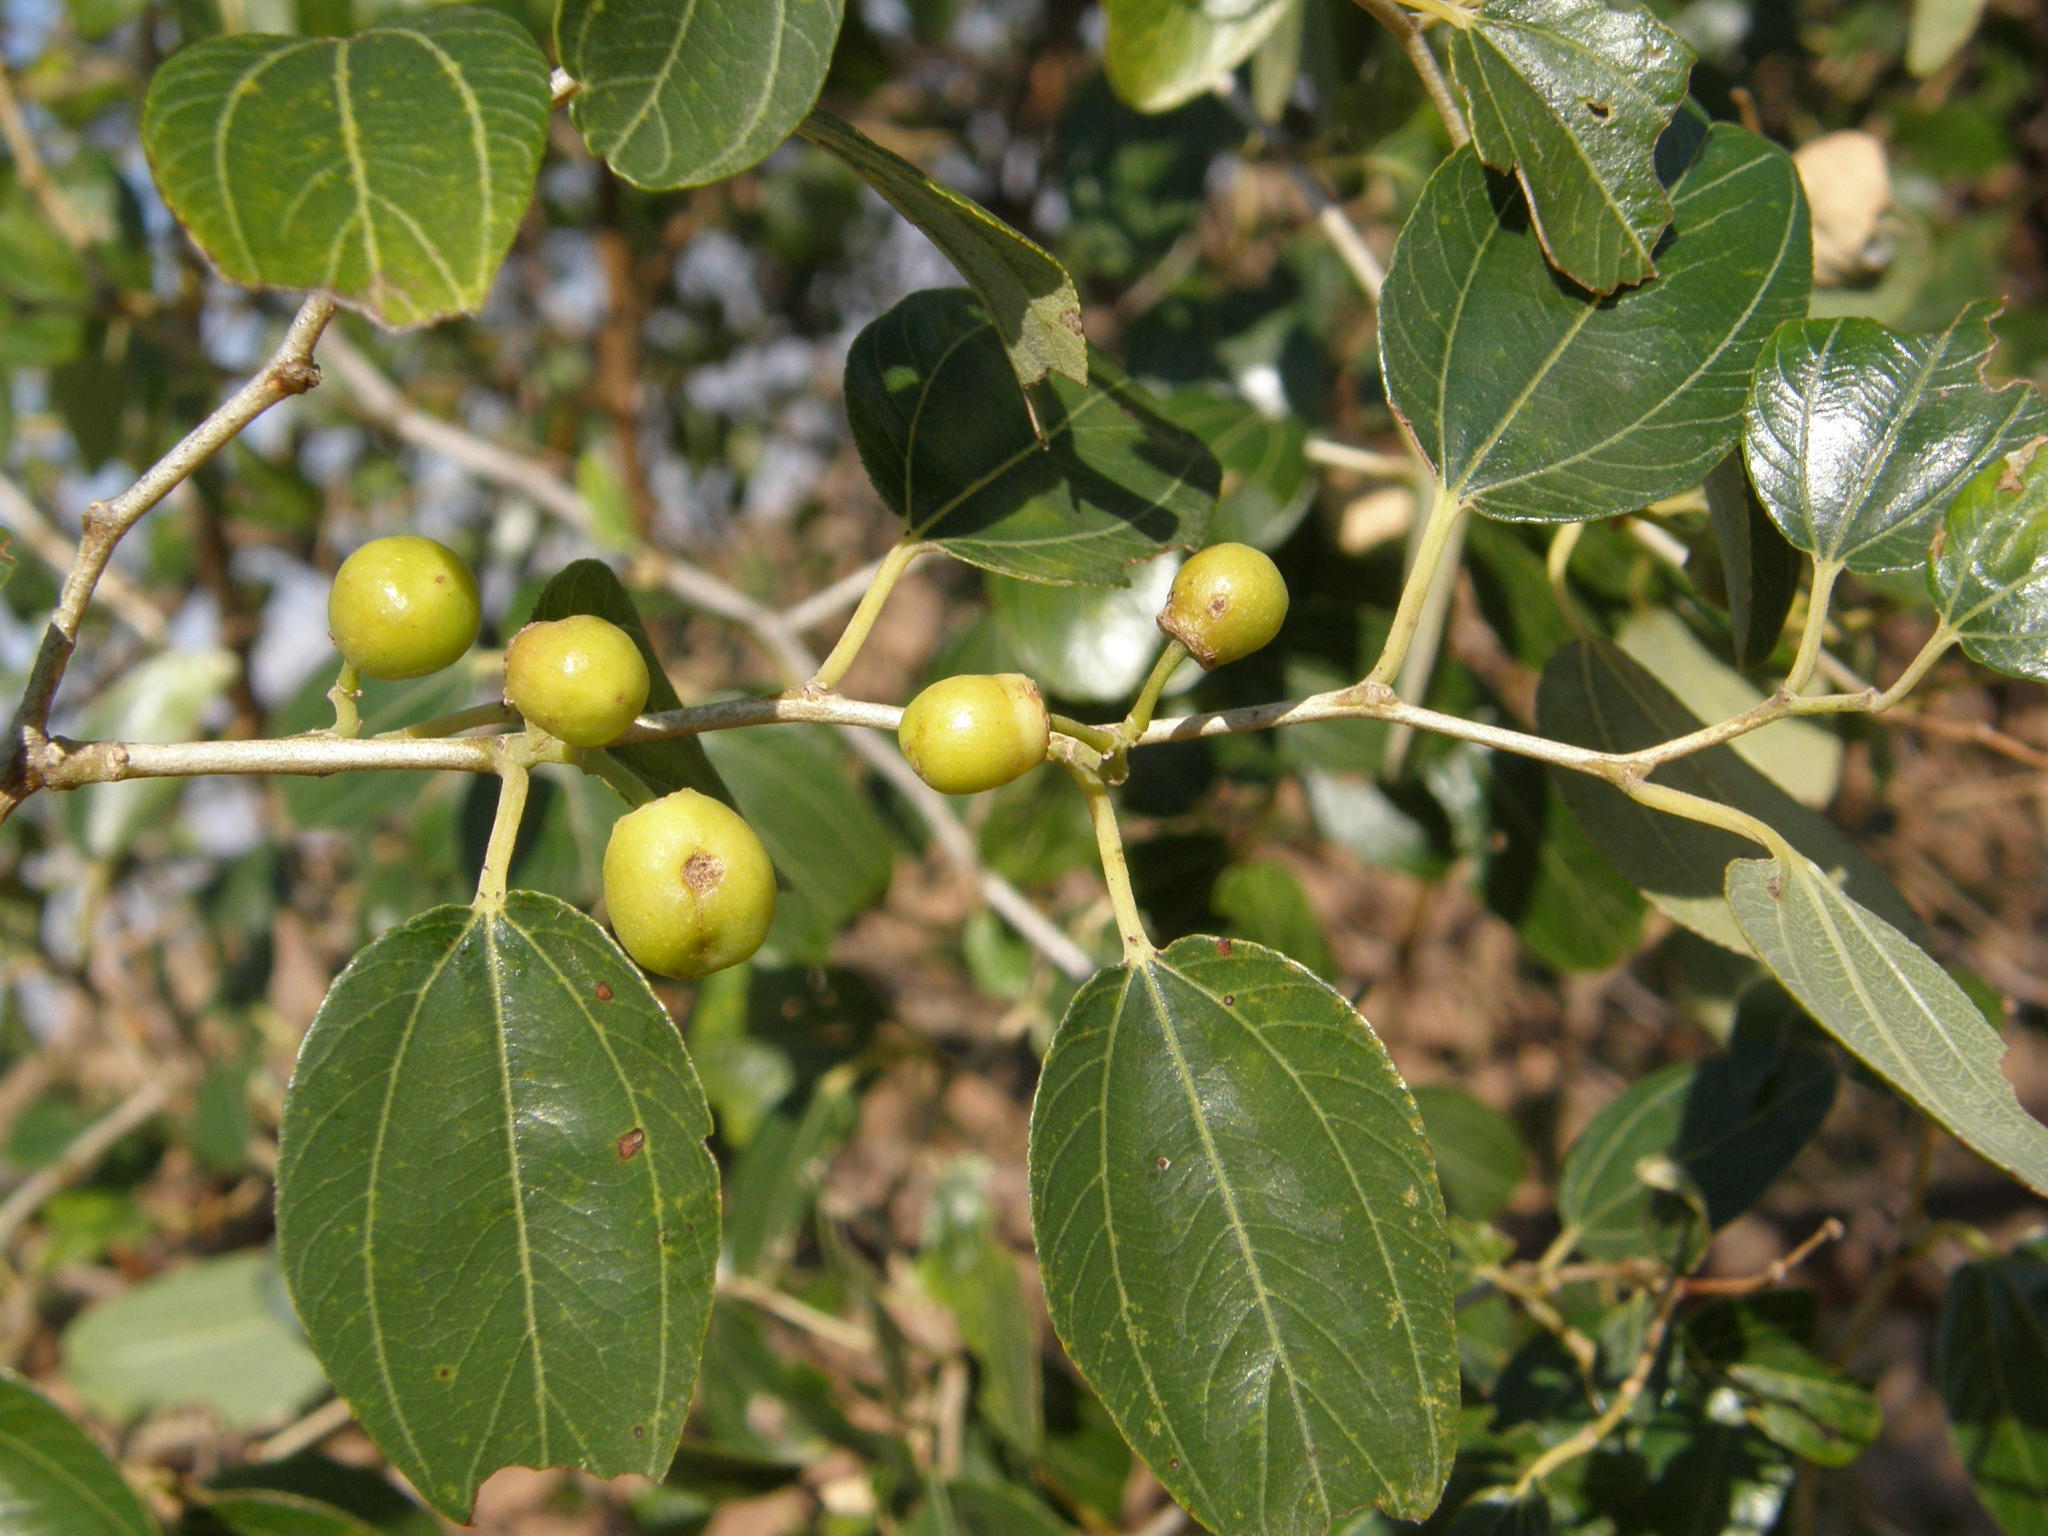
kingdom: Plantae
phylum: Tracheophyta
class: Magnoliopsida
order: Rosales
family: Rhamnaceae
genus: Ziziphus
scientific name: Ziziphus mauritiana
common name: Indian jujube
